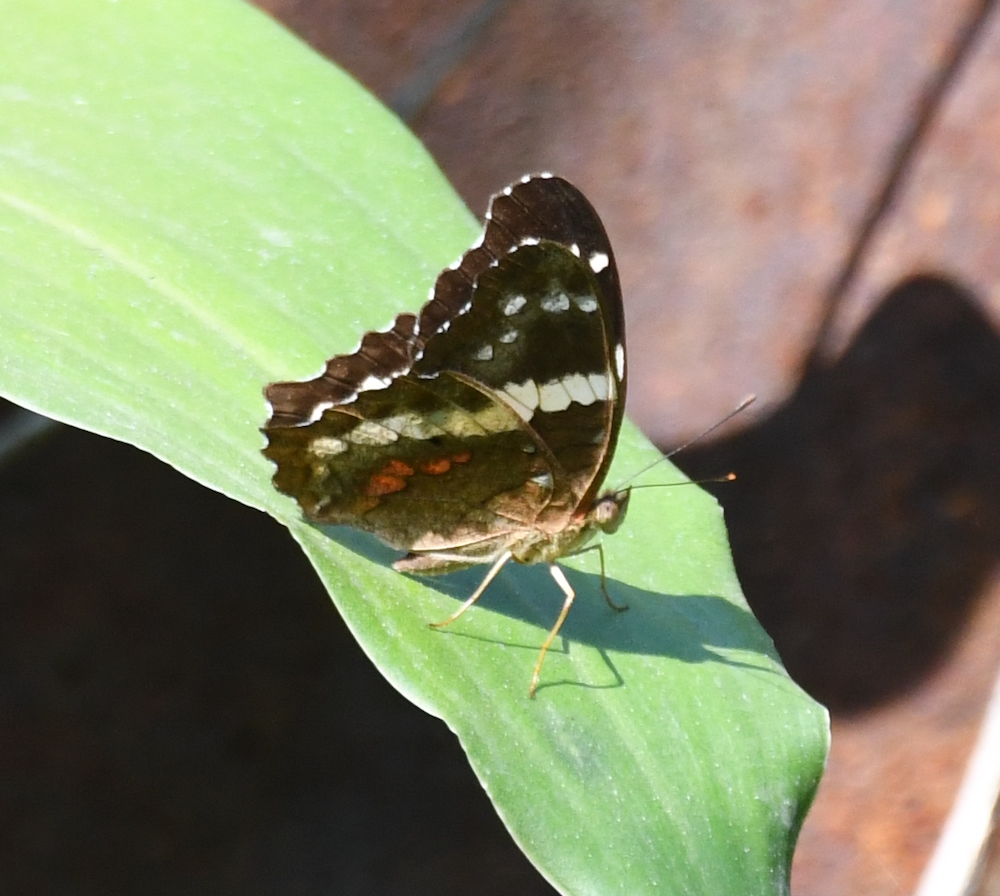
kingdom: Animalia
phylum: Arthropoda
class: Insecta
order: Lepidoptera
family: Nymphalidae
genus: Anartia
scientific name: Anartia fatima
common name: Banded peacock
